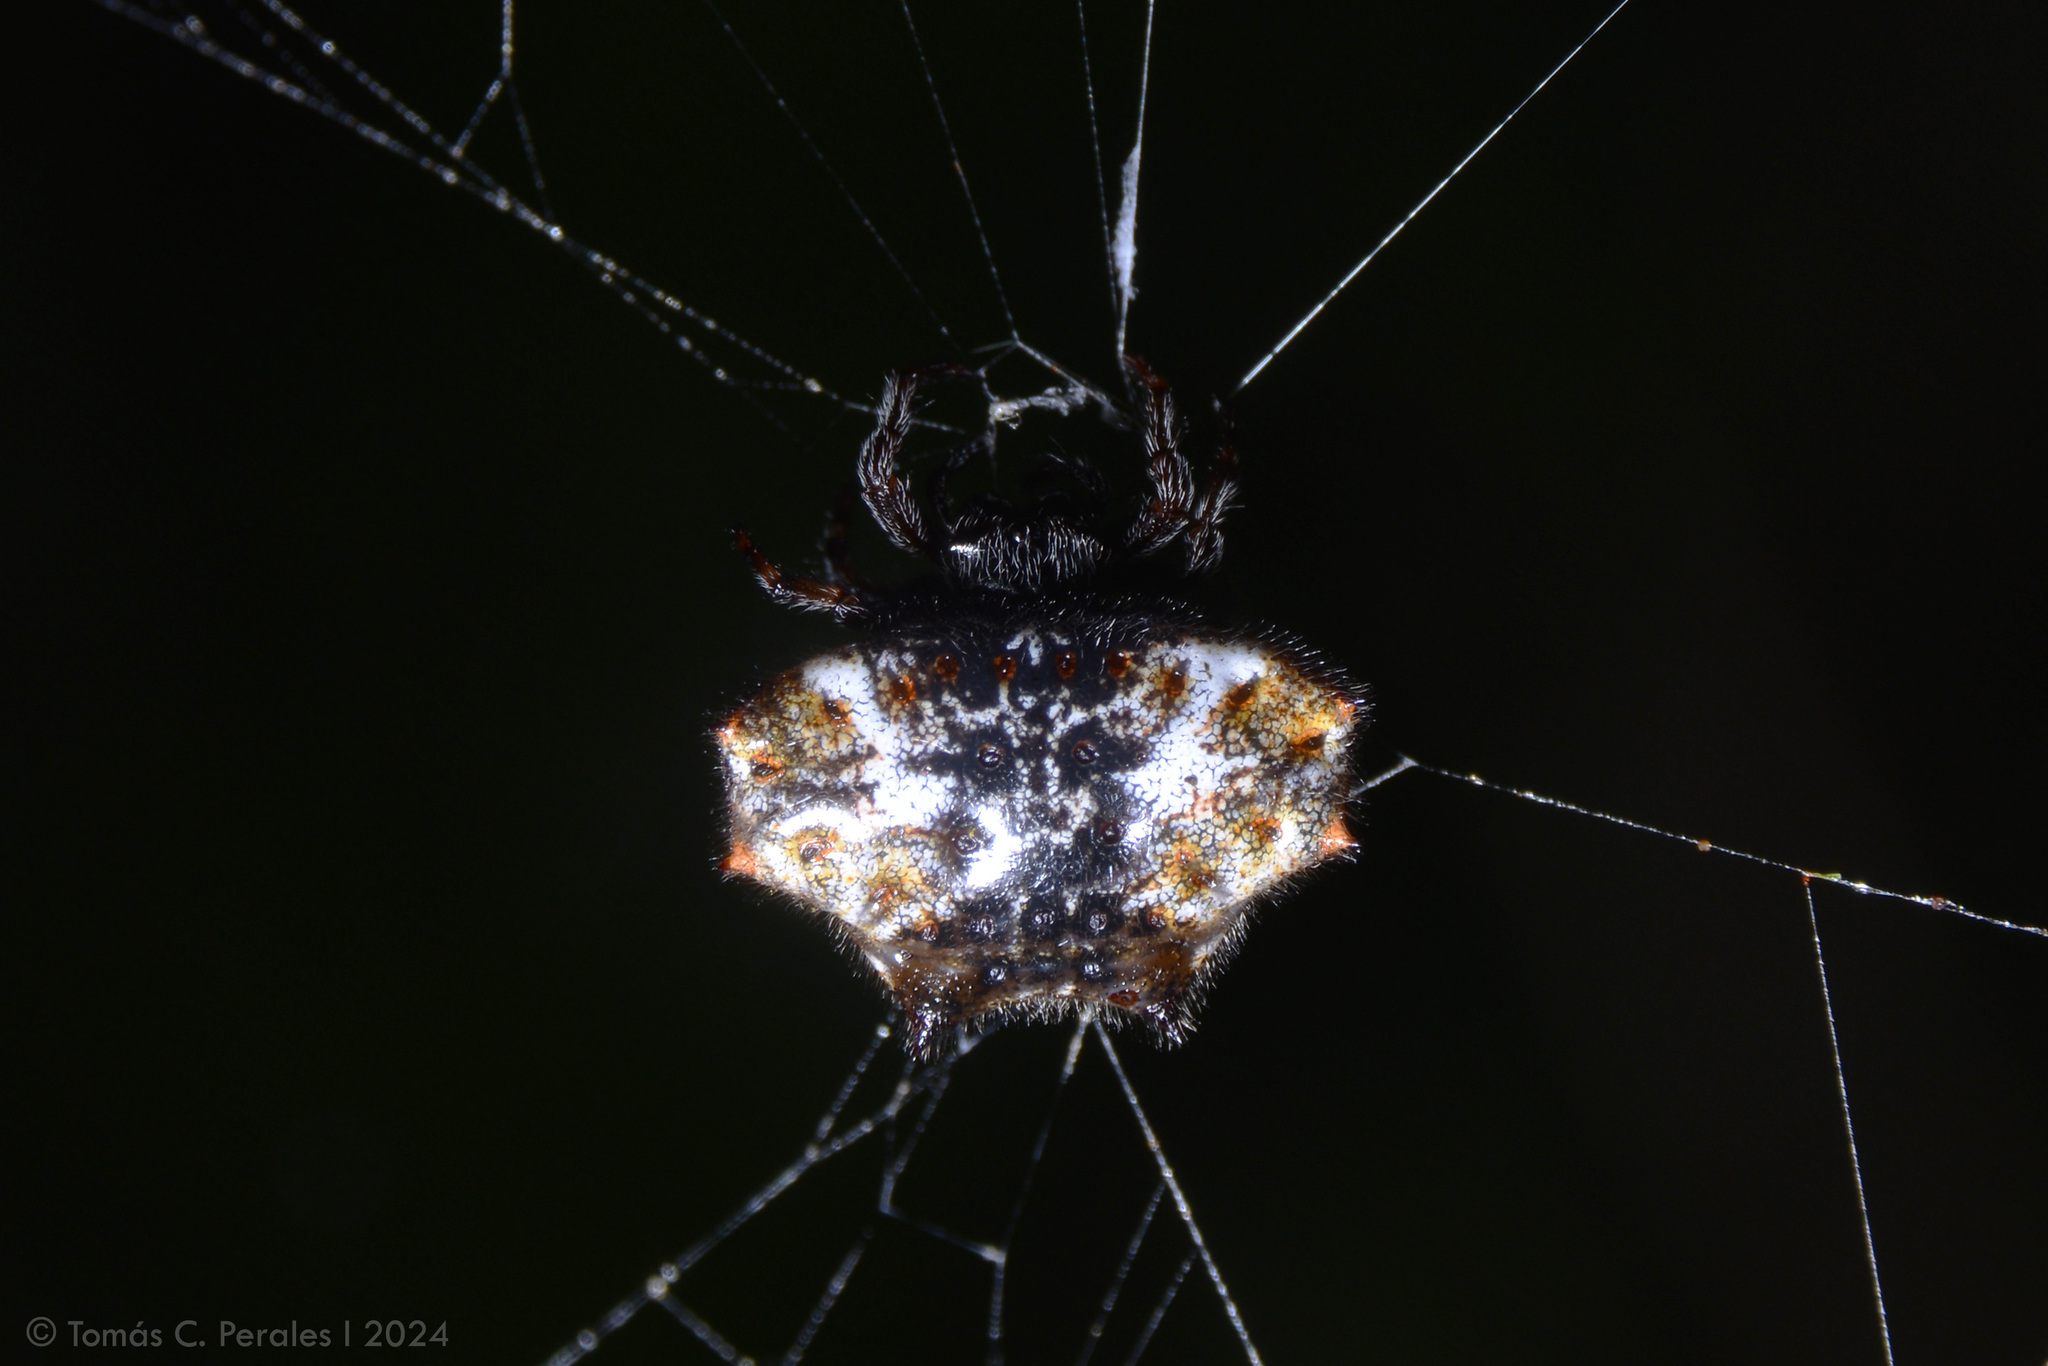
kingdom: Animalia
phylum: Arthropoda
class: Arachnida
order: Araneae
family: Araneidae
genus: Gasteracantha
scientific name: Gasteracantha cancriformis
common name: Orb weavers
